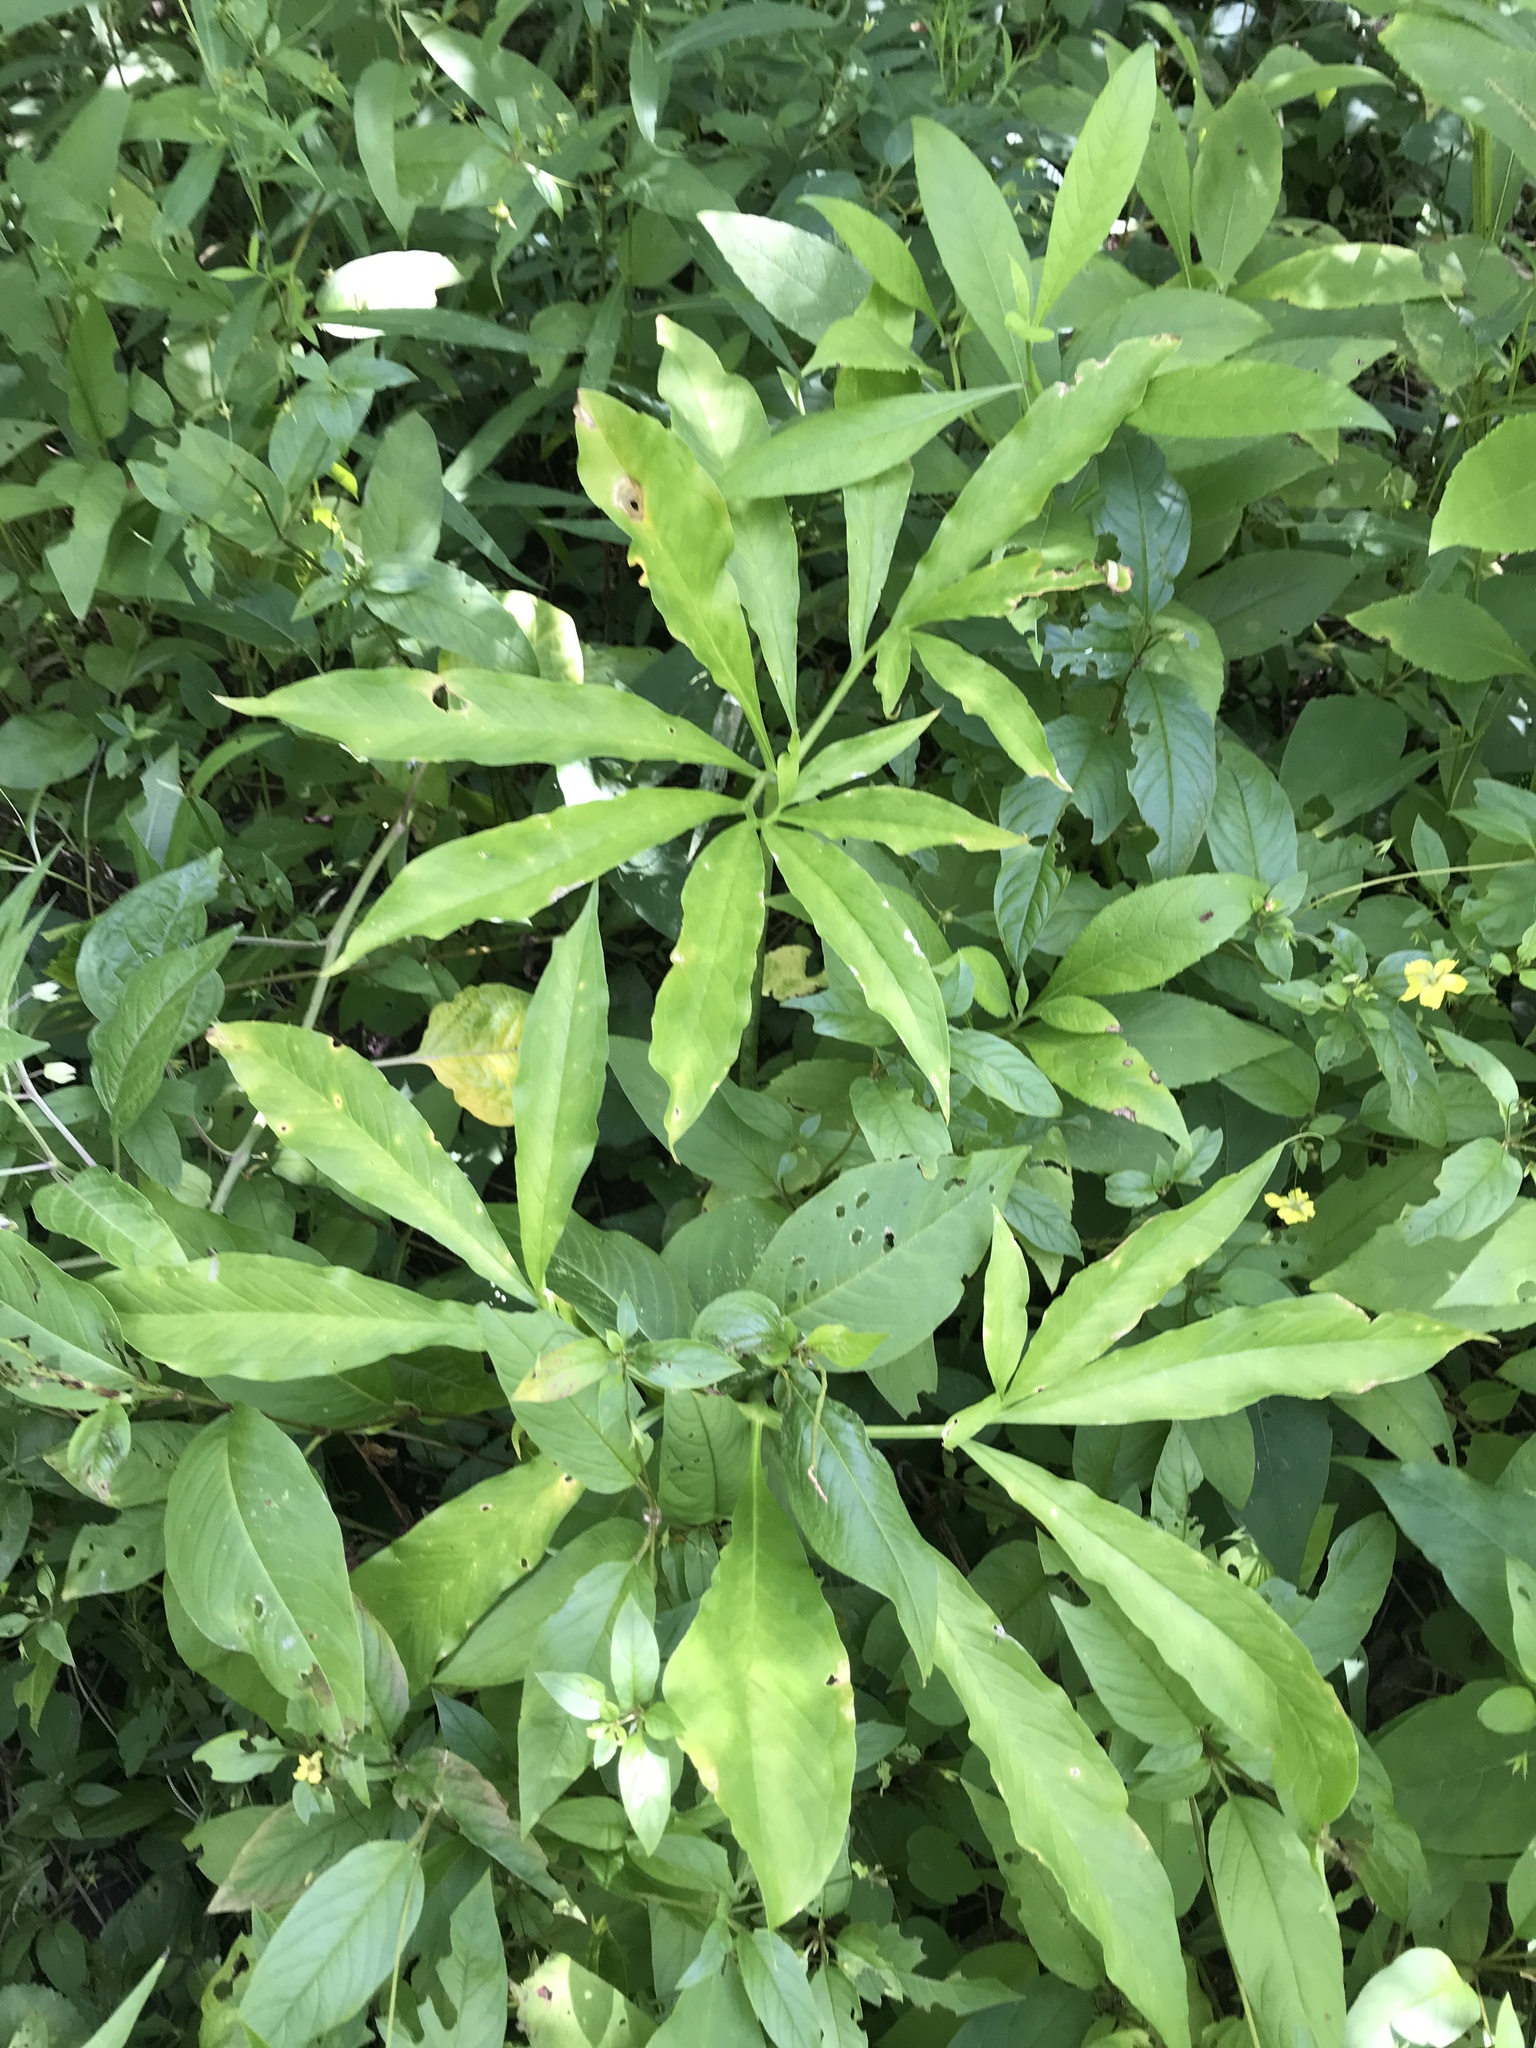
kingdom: Plantae
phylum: Tracheophyta
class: Liliopsida
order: Alismatales
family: Araceae
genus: Arisaema
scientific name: Arisaema dracontium
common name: Dragon-arum
